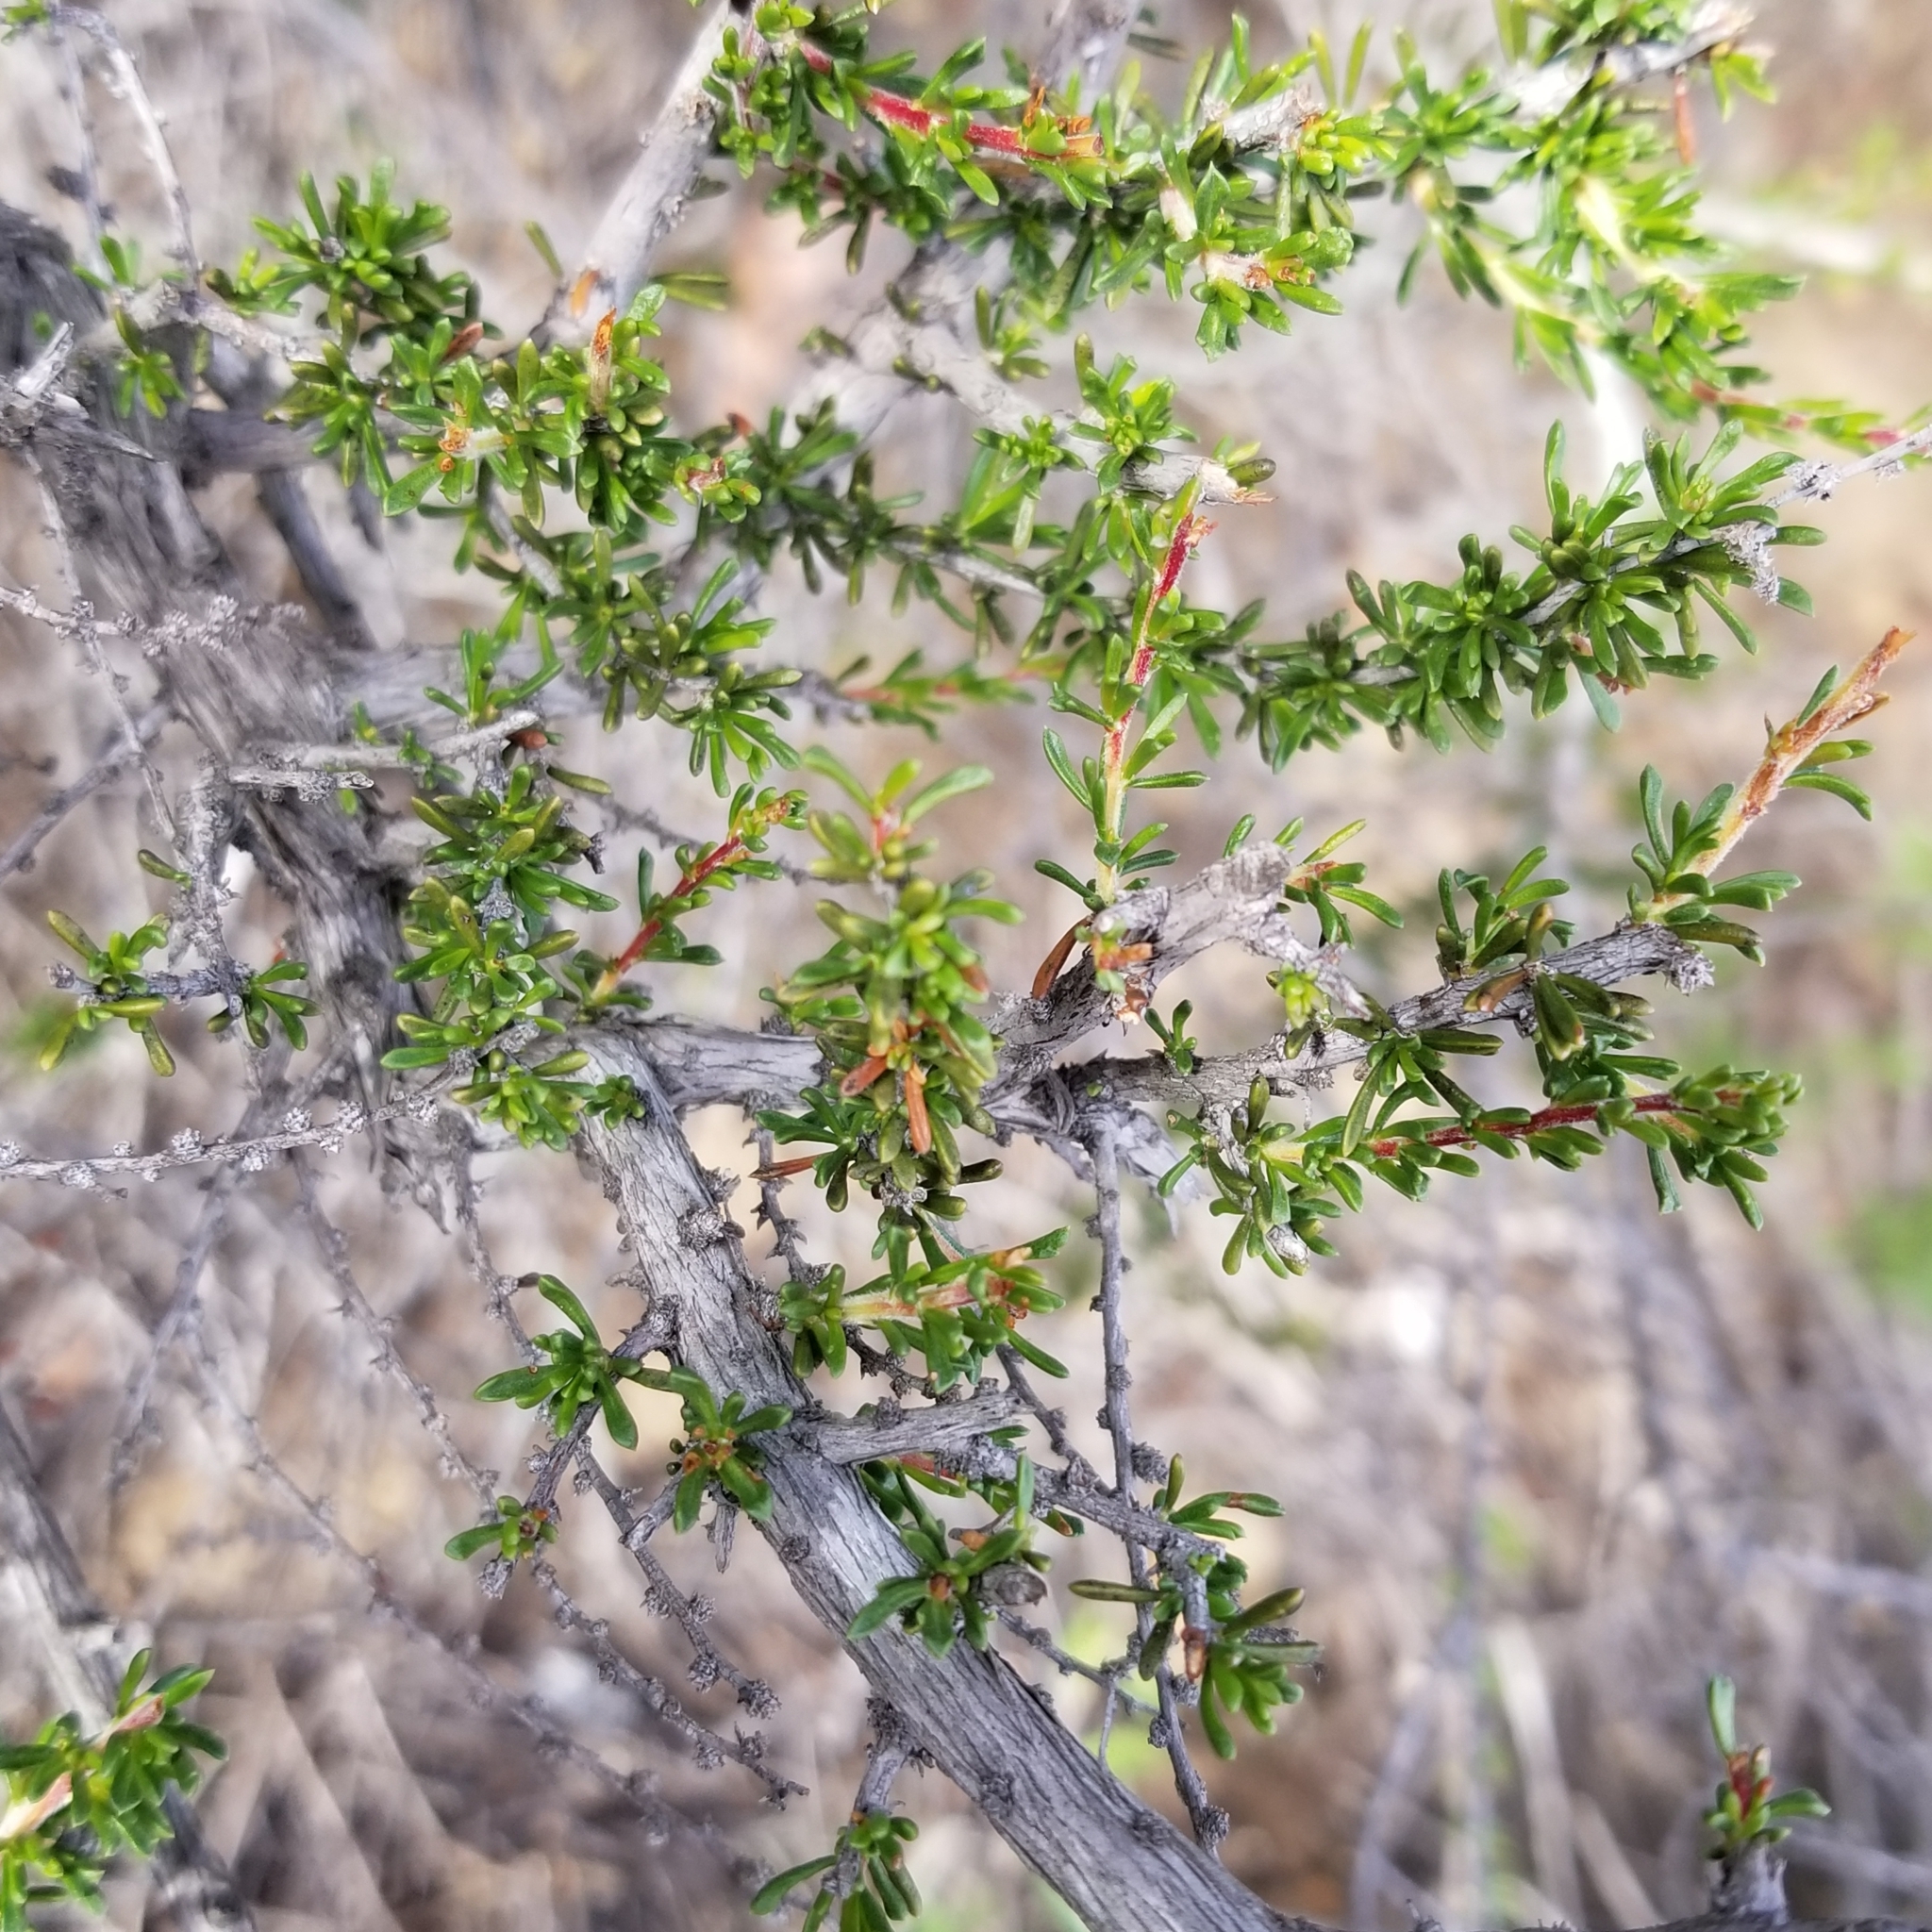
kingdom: Plantae
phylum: Tracheophyta
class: Magnoliopsida
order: Rosales
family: Rosaceae
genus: Adenostoma
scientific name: Adenostoma fasciculatum
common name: Chamise
